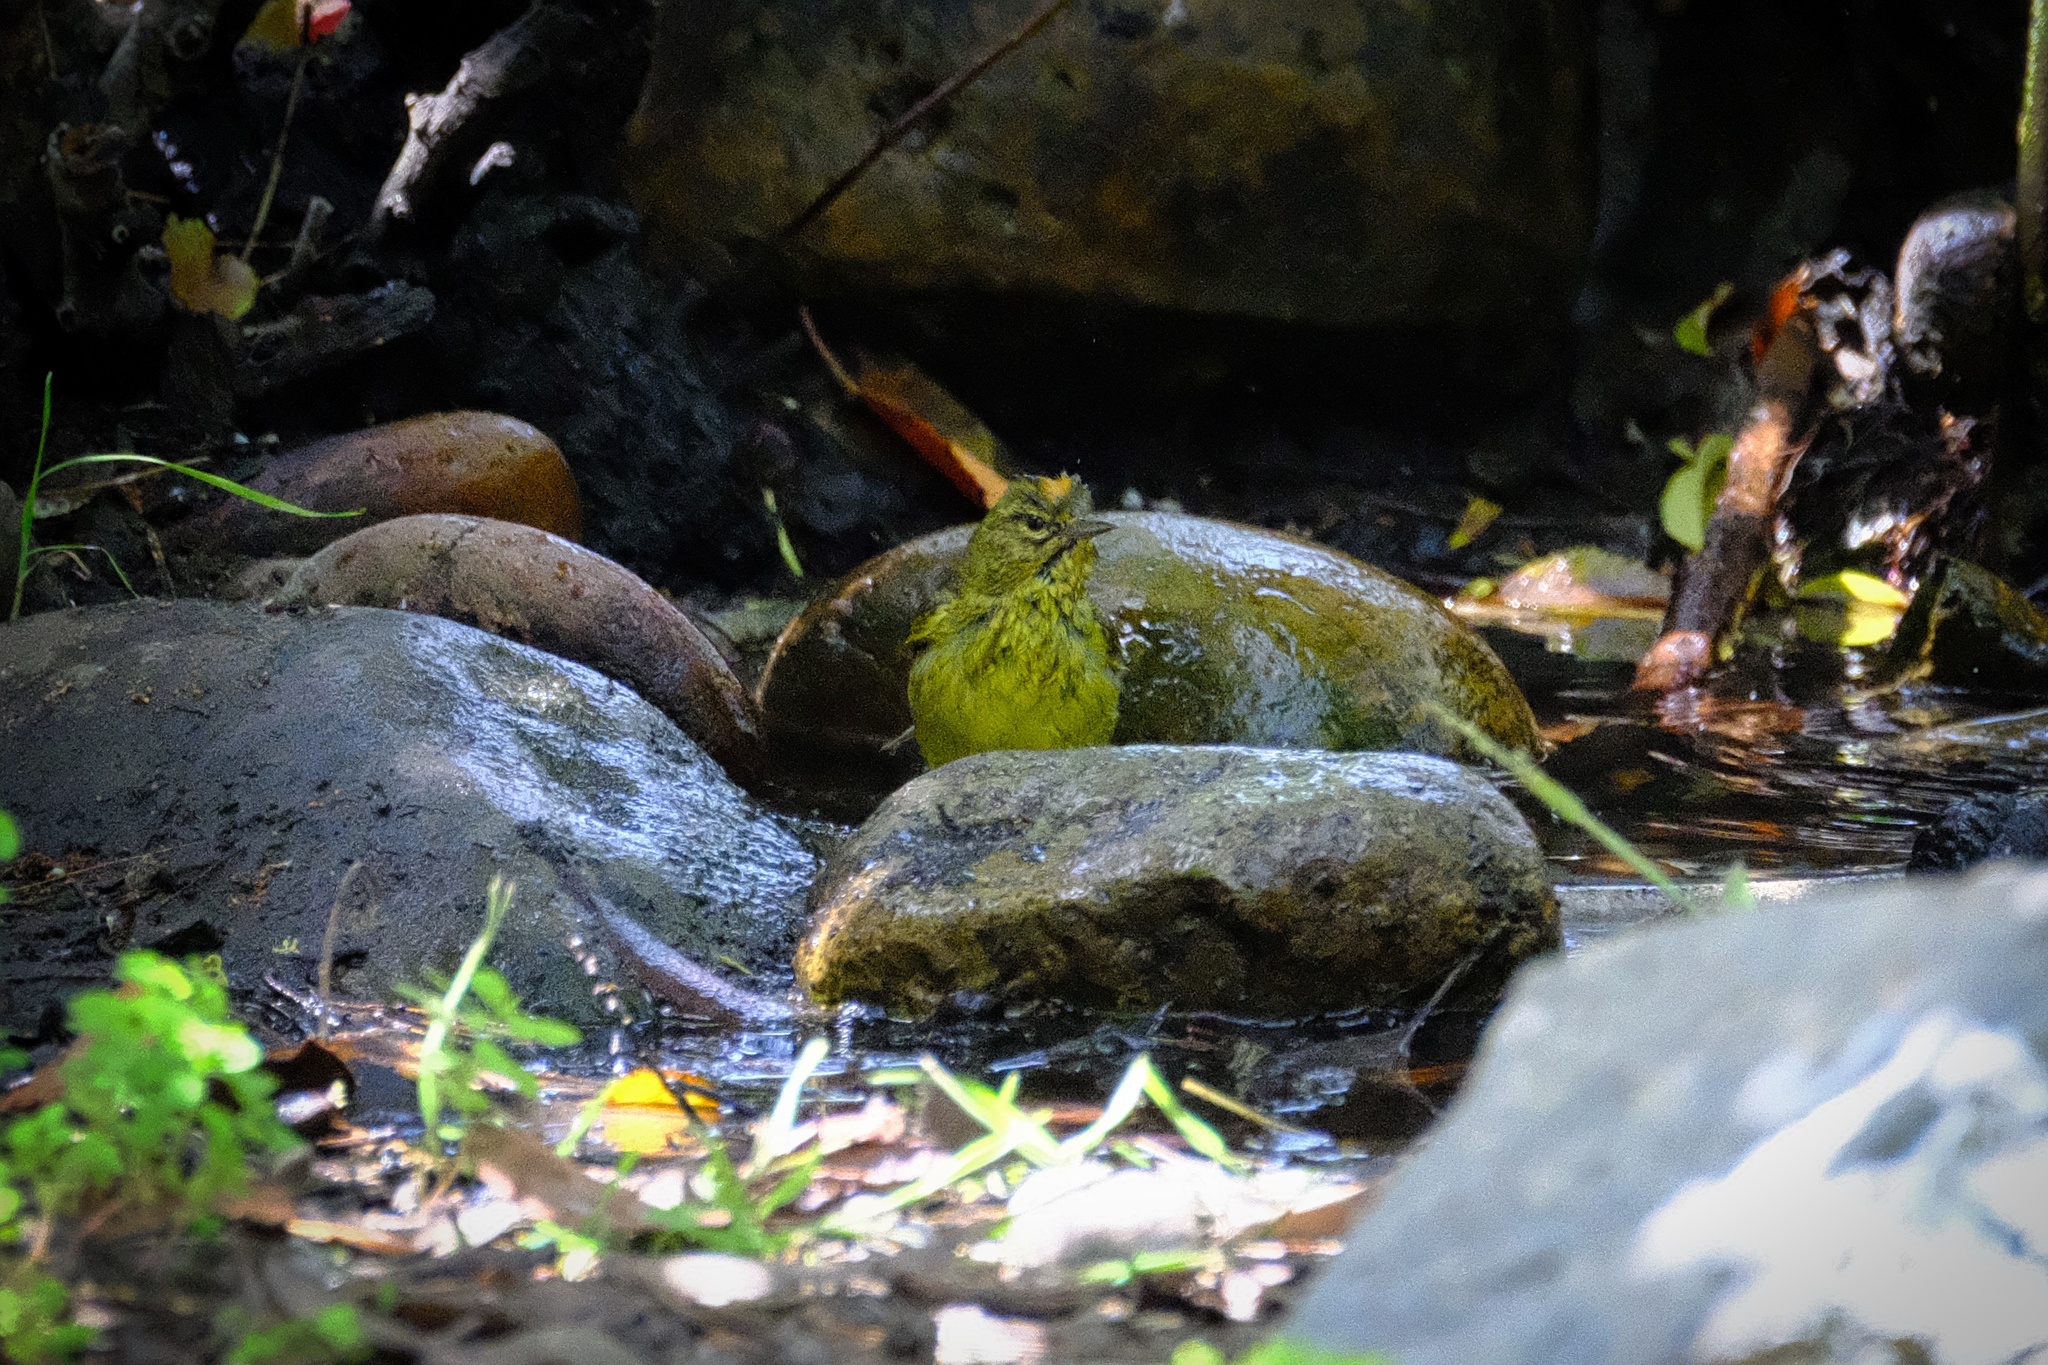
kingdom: Animalia
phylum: Chordata
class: Aves
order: Passeriformes
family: Parulidae
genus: Leiothlypis
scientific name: Leiothlypis celata
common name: Orange-crowned warbler
